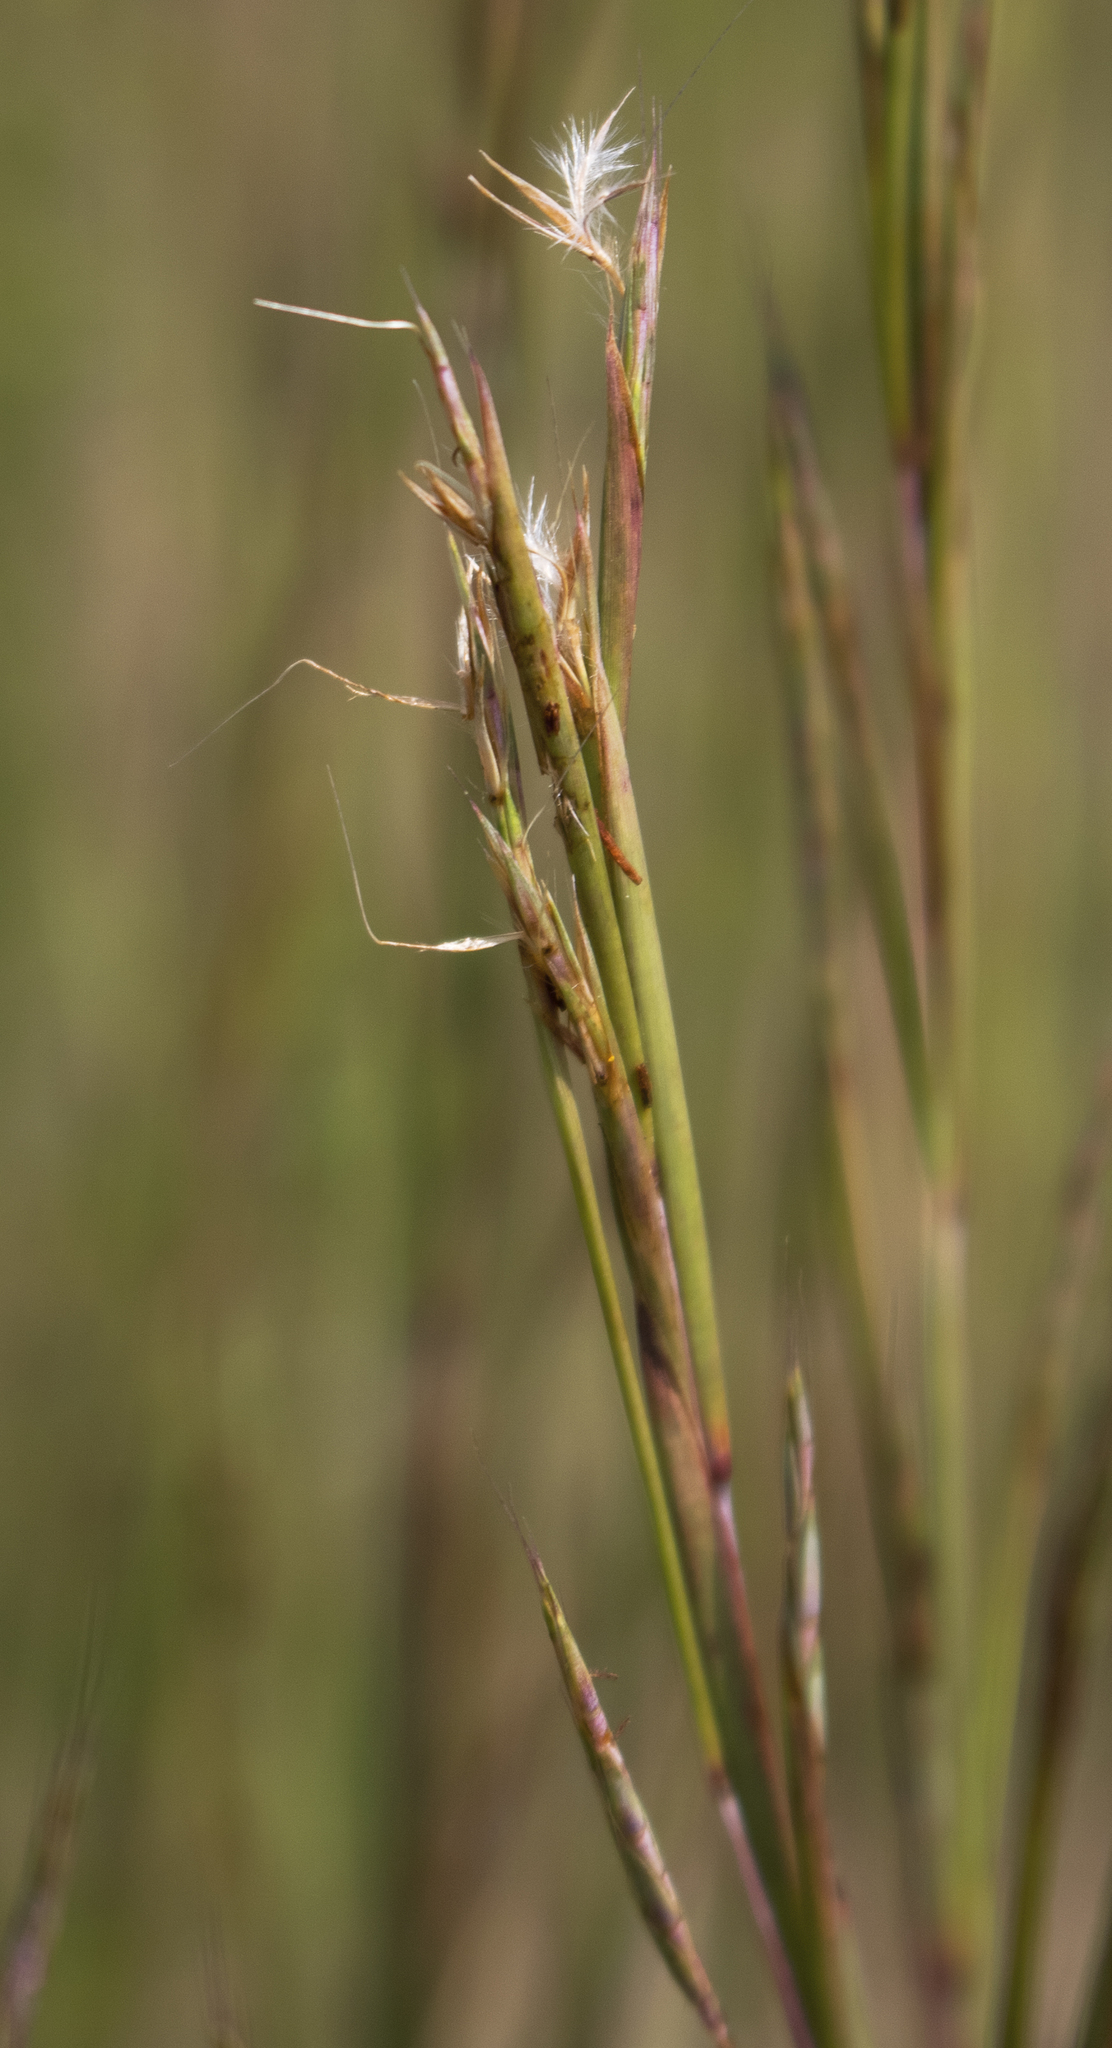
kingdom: Plantae
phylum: Tracheophyta
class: Liliopsida
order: Poales
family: Poaceae
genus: Schizachyrium
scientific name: Schizachyrium scoparium
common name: Little bluestem
